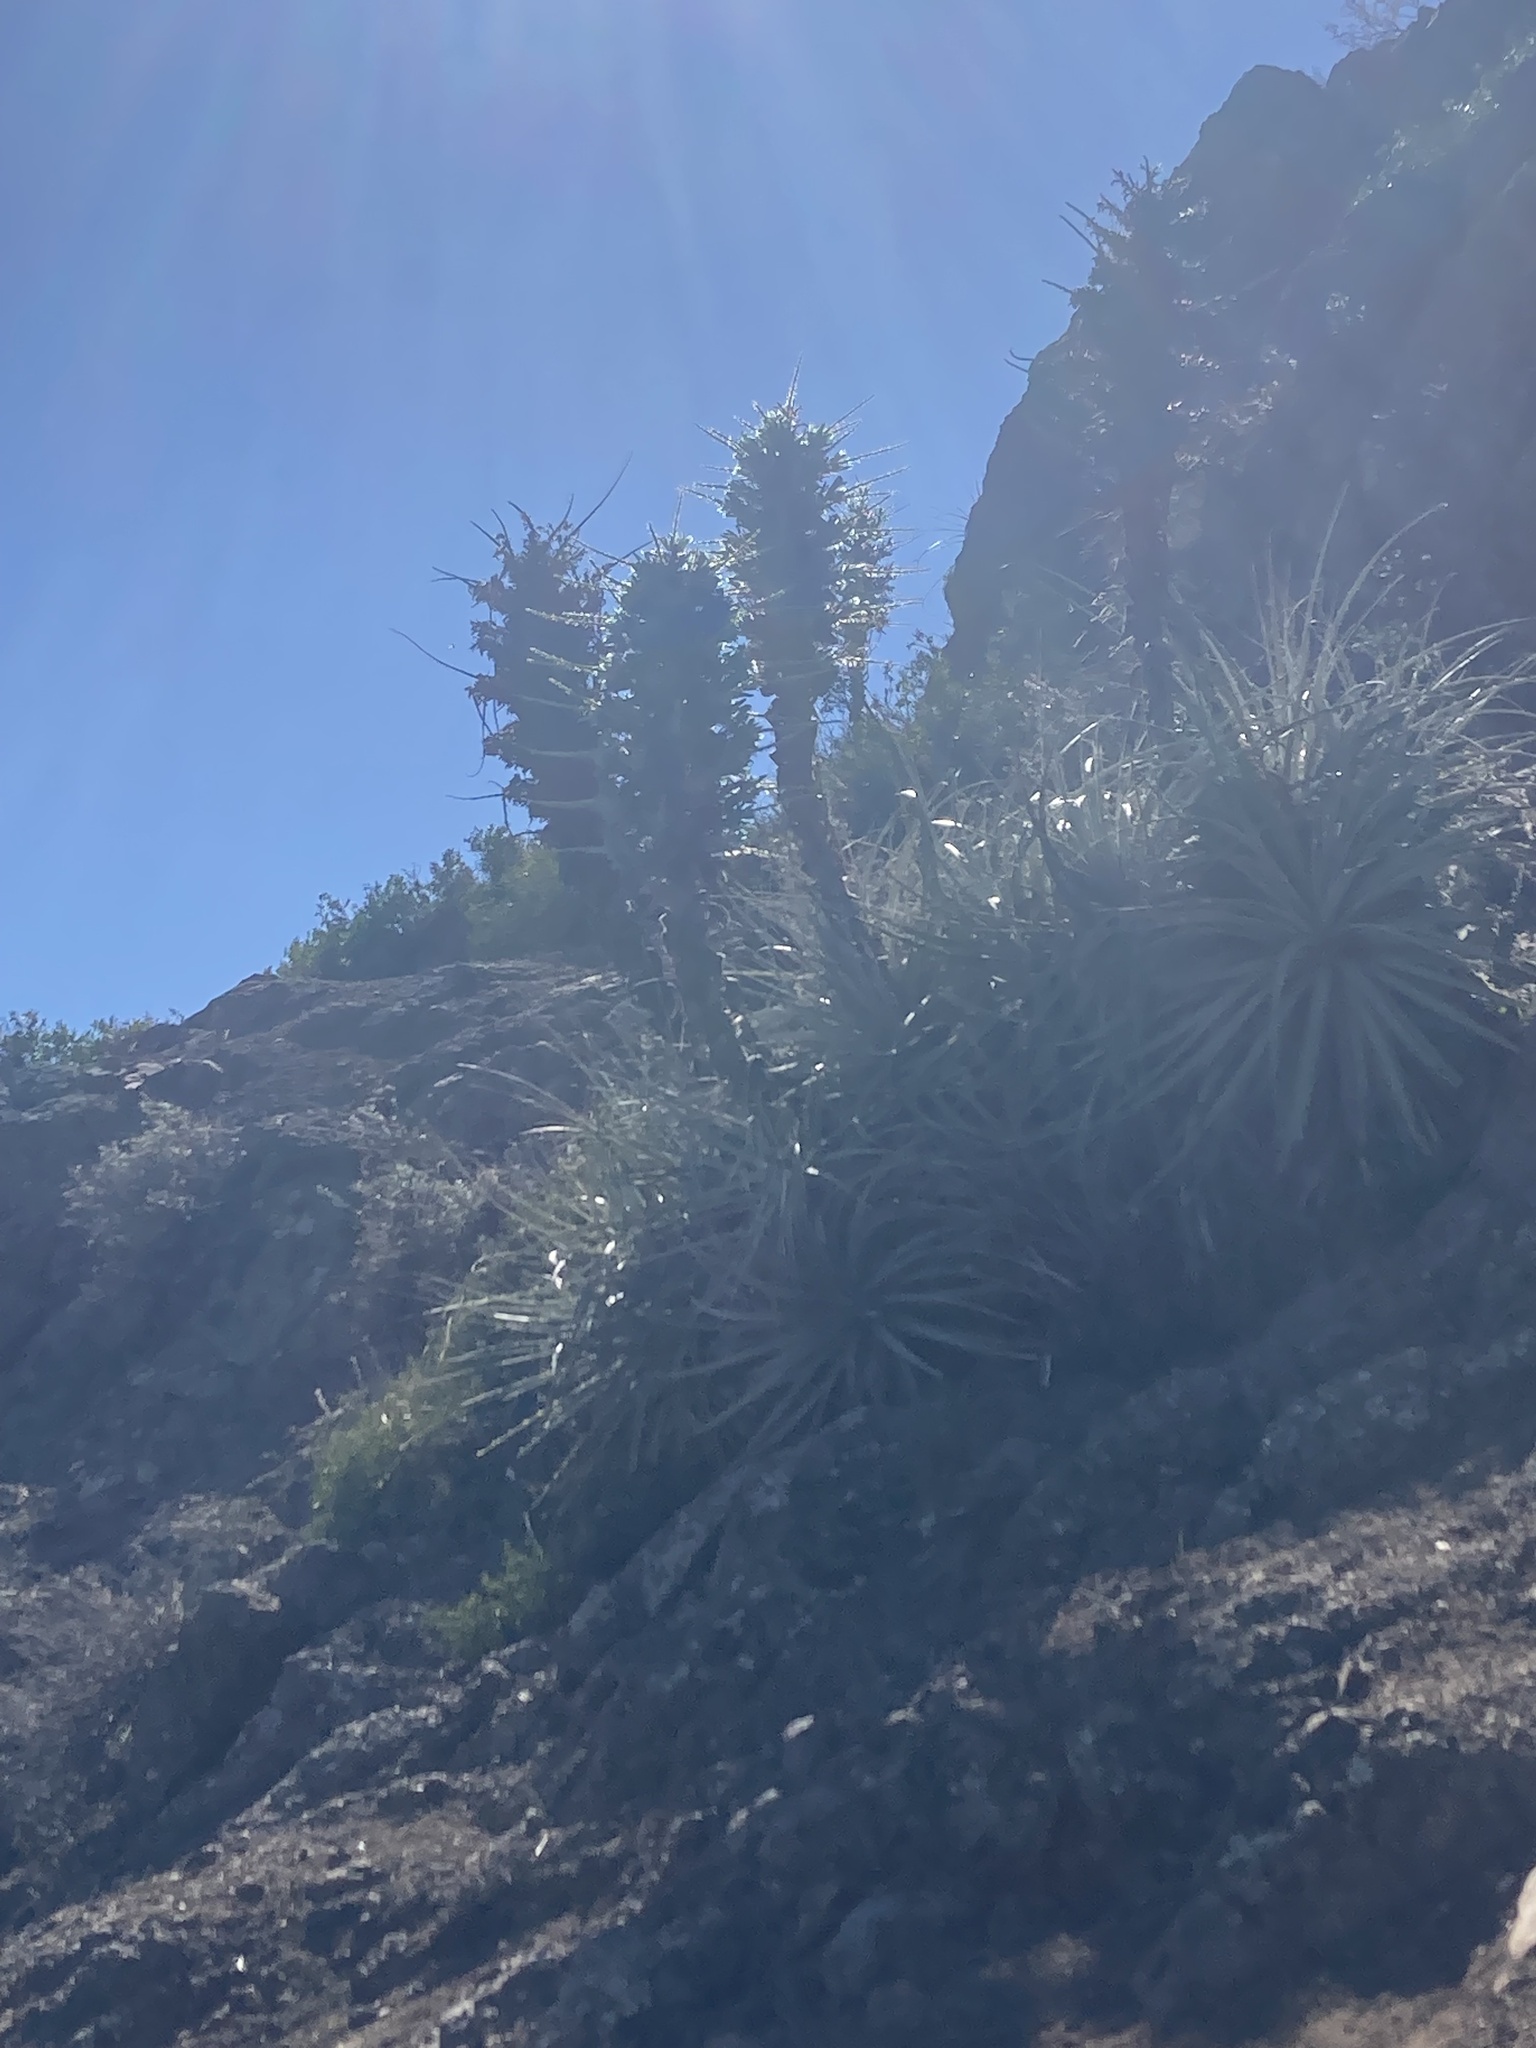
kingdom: Plantae
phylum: Tracheophyta
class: Liliopsida
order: Poales
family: Bromeliaceae
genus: Puya
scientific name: Puya alpestris
